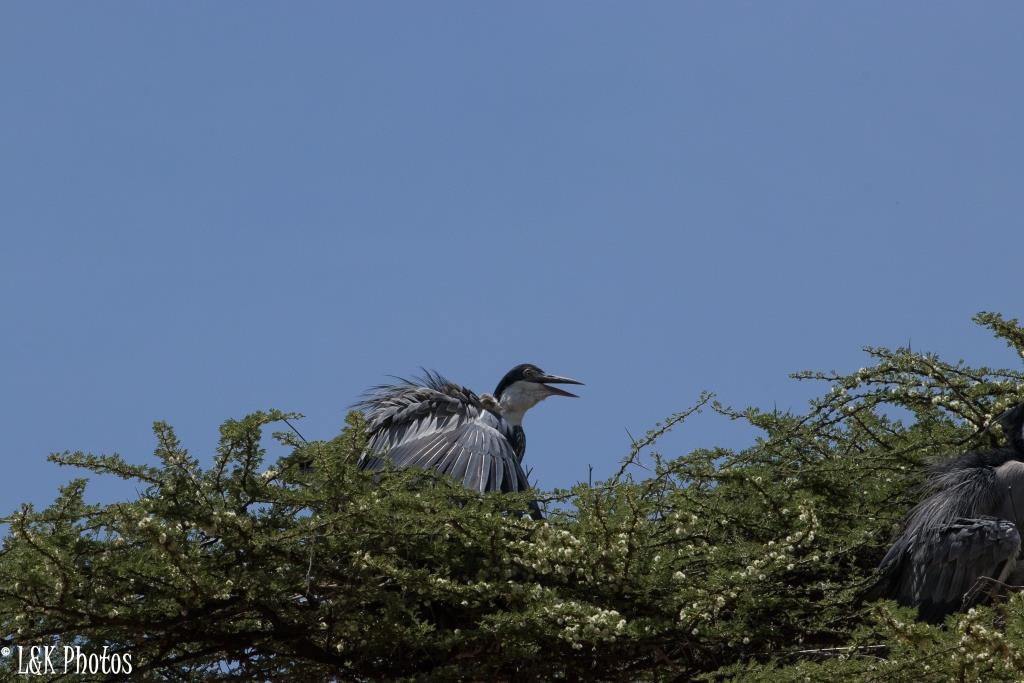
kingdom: Animalia
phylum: Chordata
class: Aves
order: Pelecaniformes
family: Ardeidae
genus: Ardea
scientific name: Ardea melanocephala
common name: Black-headed heron
